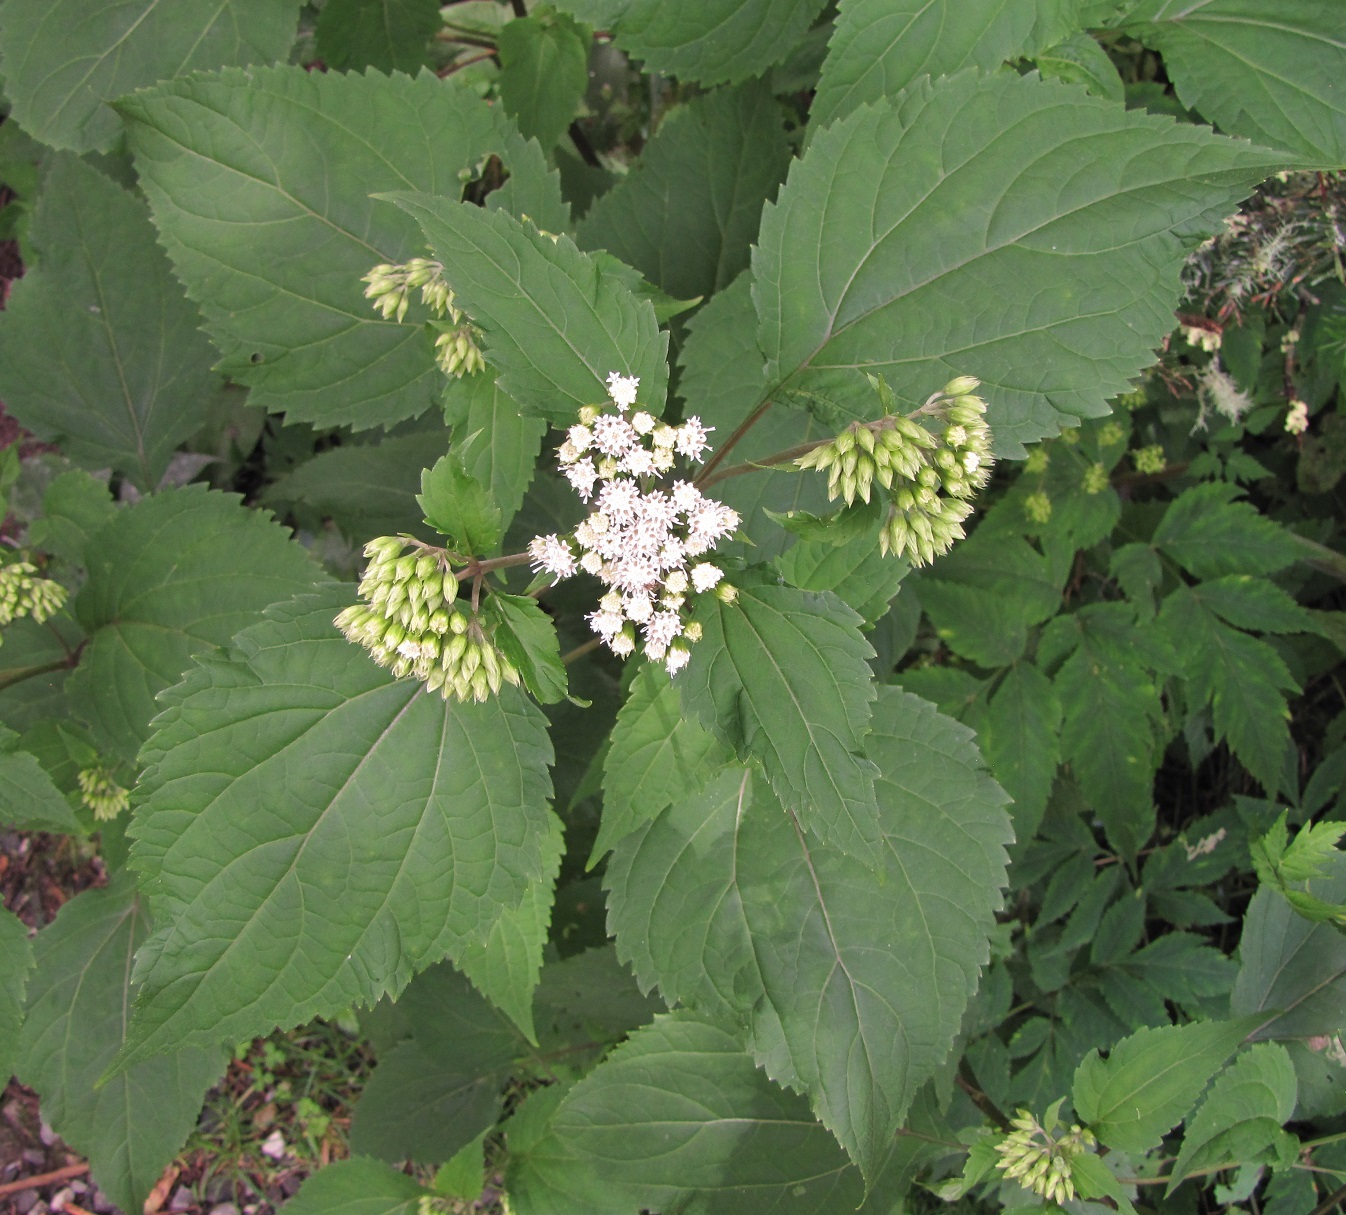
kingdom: Plantae
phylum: Tracheophyta
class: Magnoliopsida
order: Asterales
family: Asteraceae
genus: Ageratina
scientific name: Ageratina altissima
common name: White snakeroot
